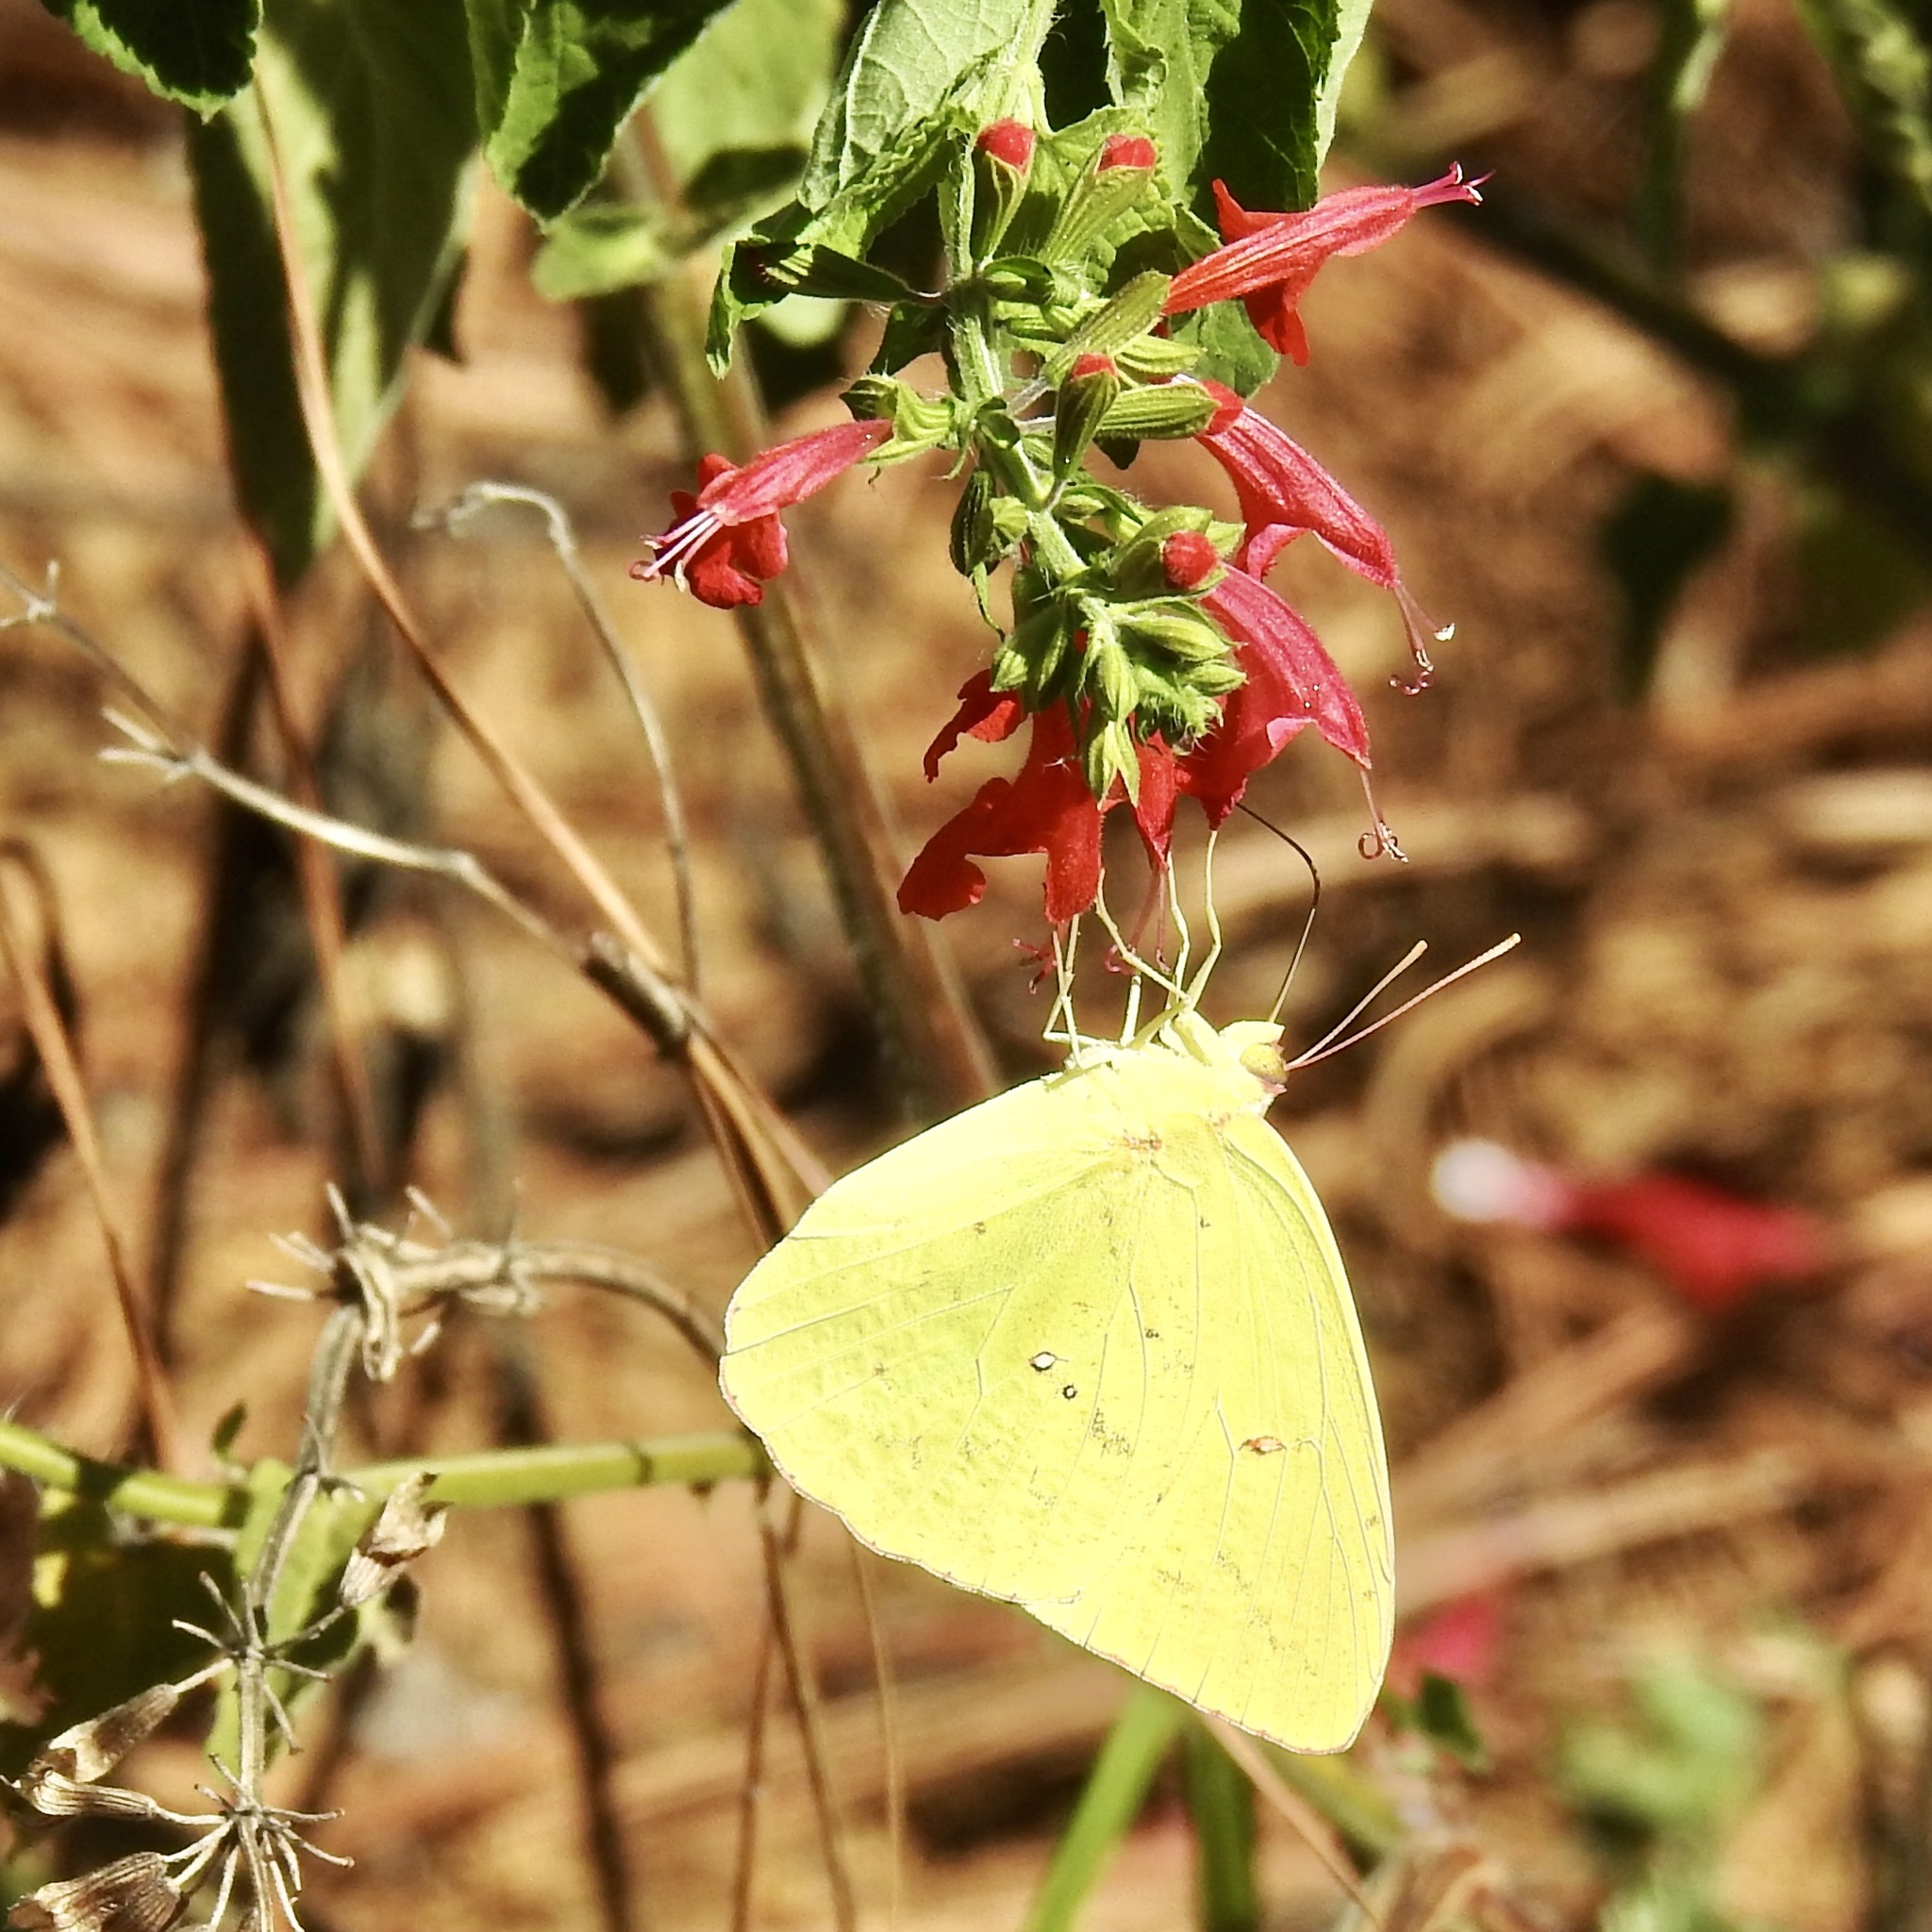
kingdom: Animalia
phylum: Arthropoda
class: Insecta
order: Lepidoptera
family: Pieridae
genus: Phoebis
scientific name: Phoebis sennae
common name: Cloudless sulphur
